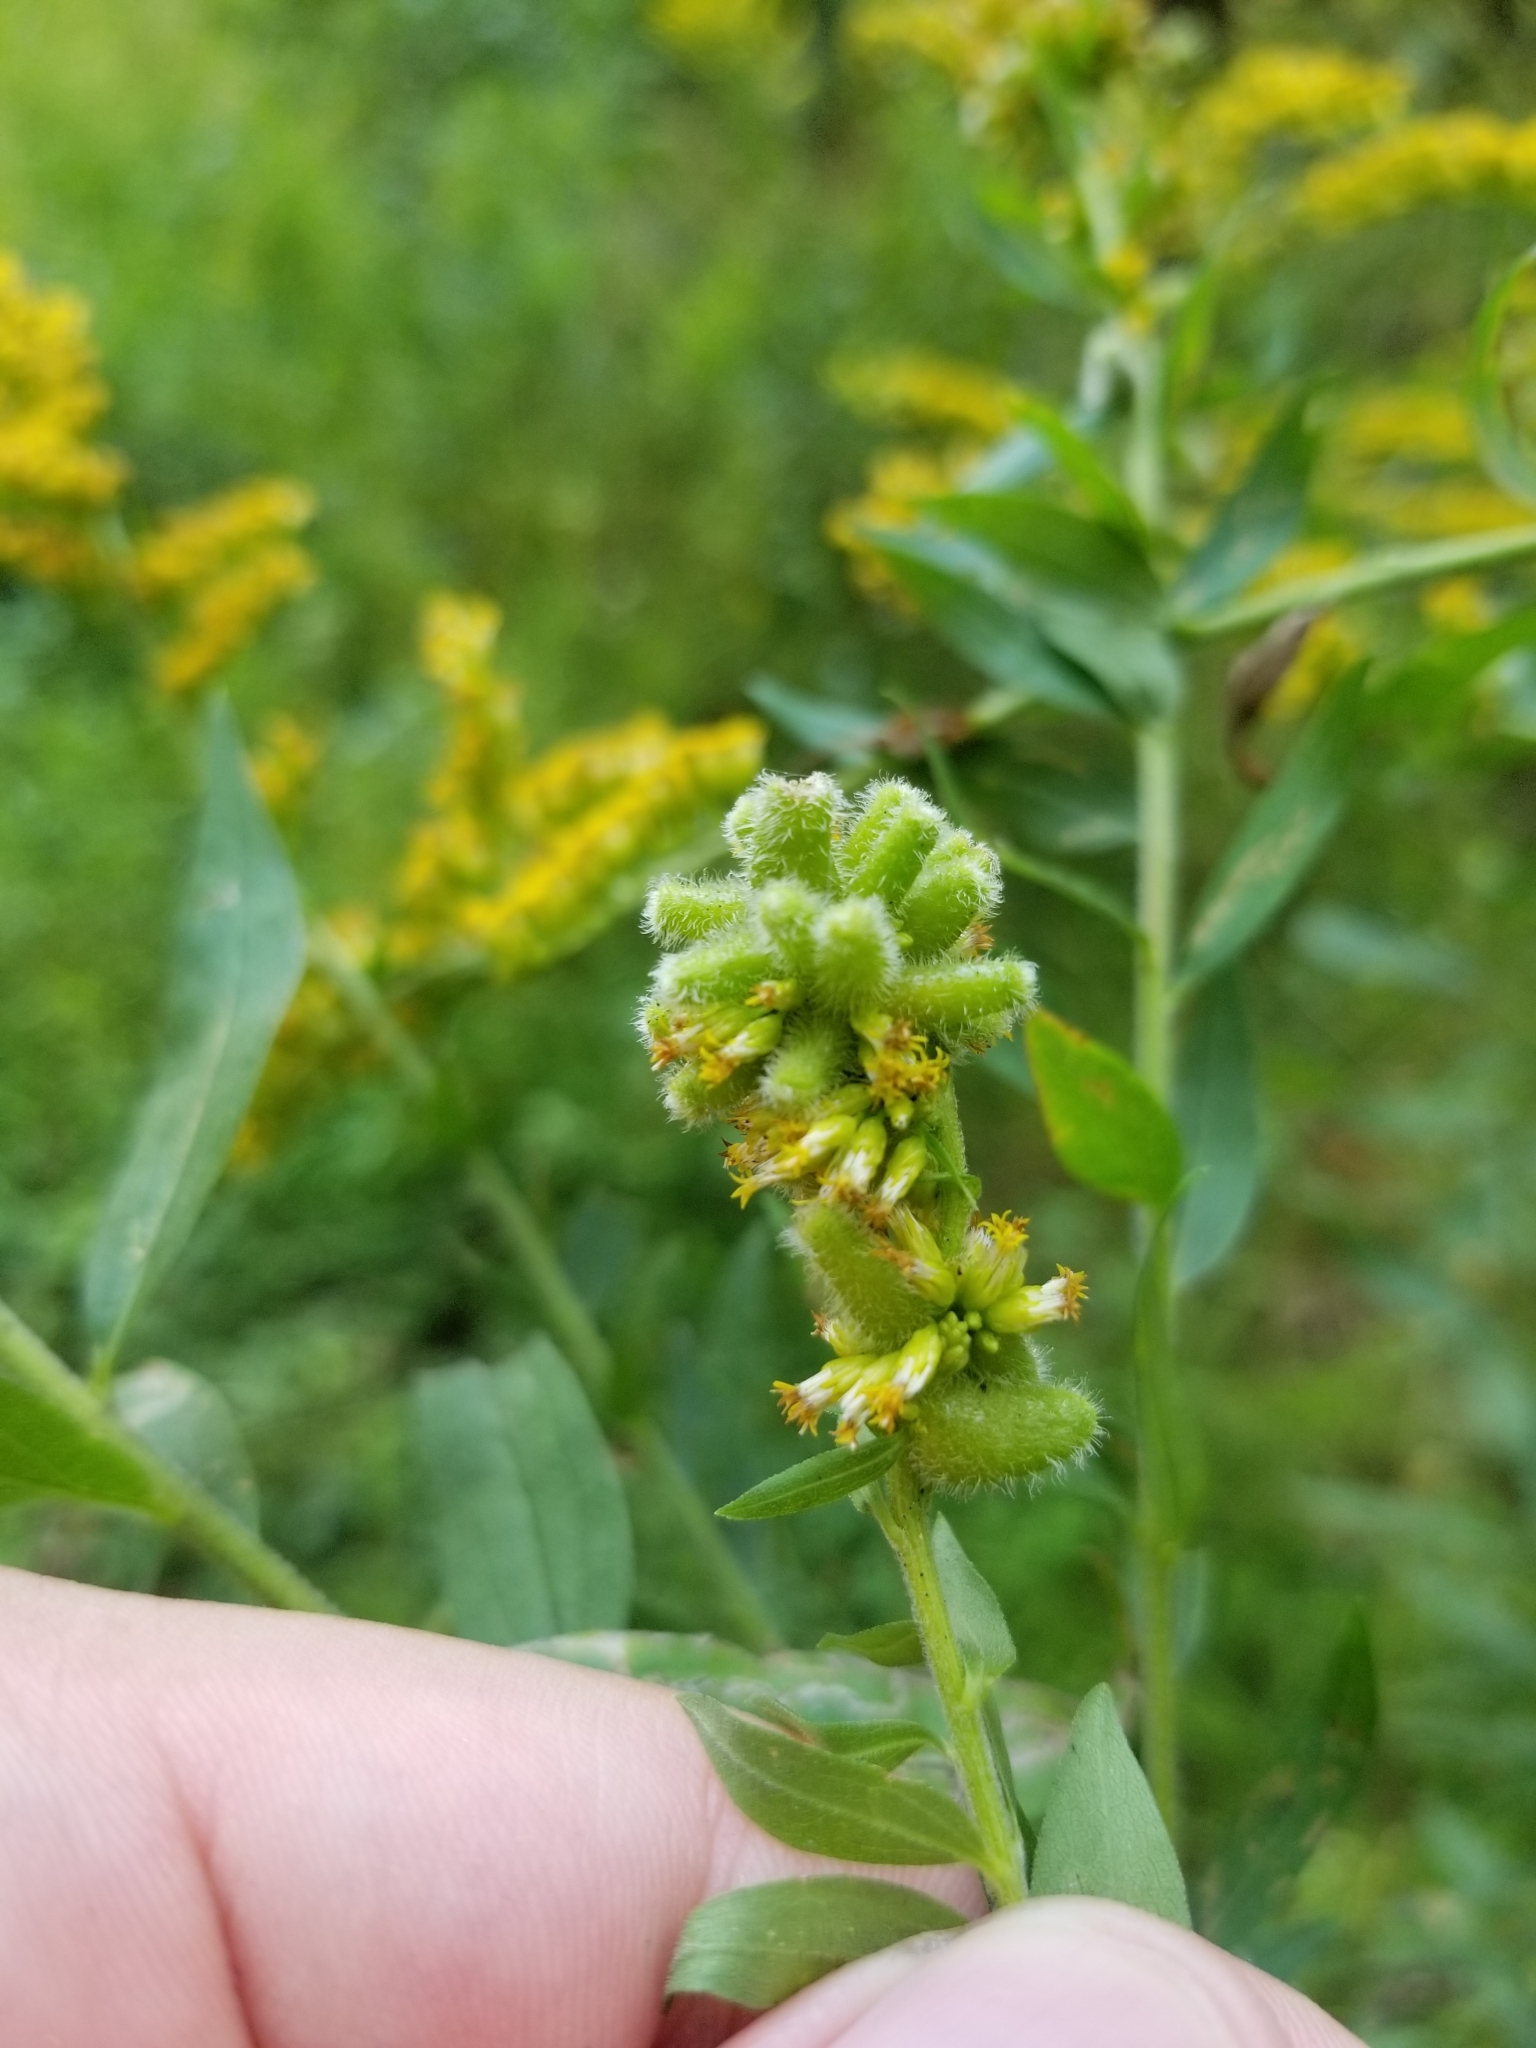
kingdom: Animalia
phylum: Arthropoda
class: Insecta
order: Diptera
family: Cecidomyiidae
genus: Rhopalomyia
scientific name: Rhopalomyia anthophila
